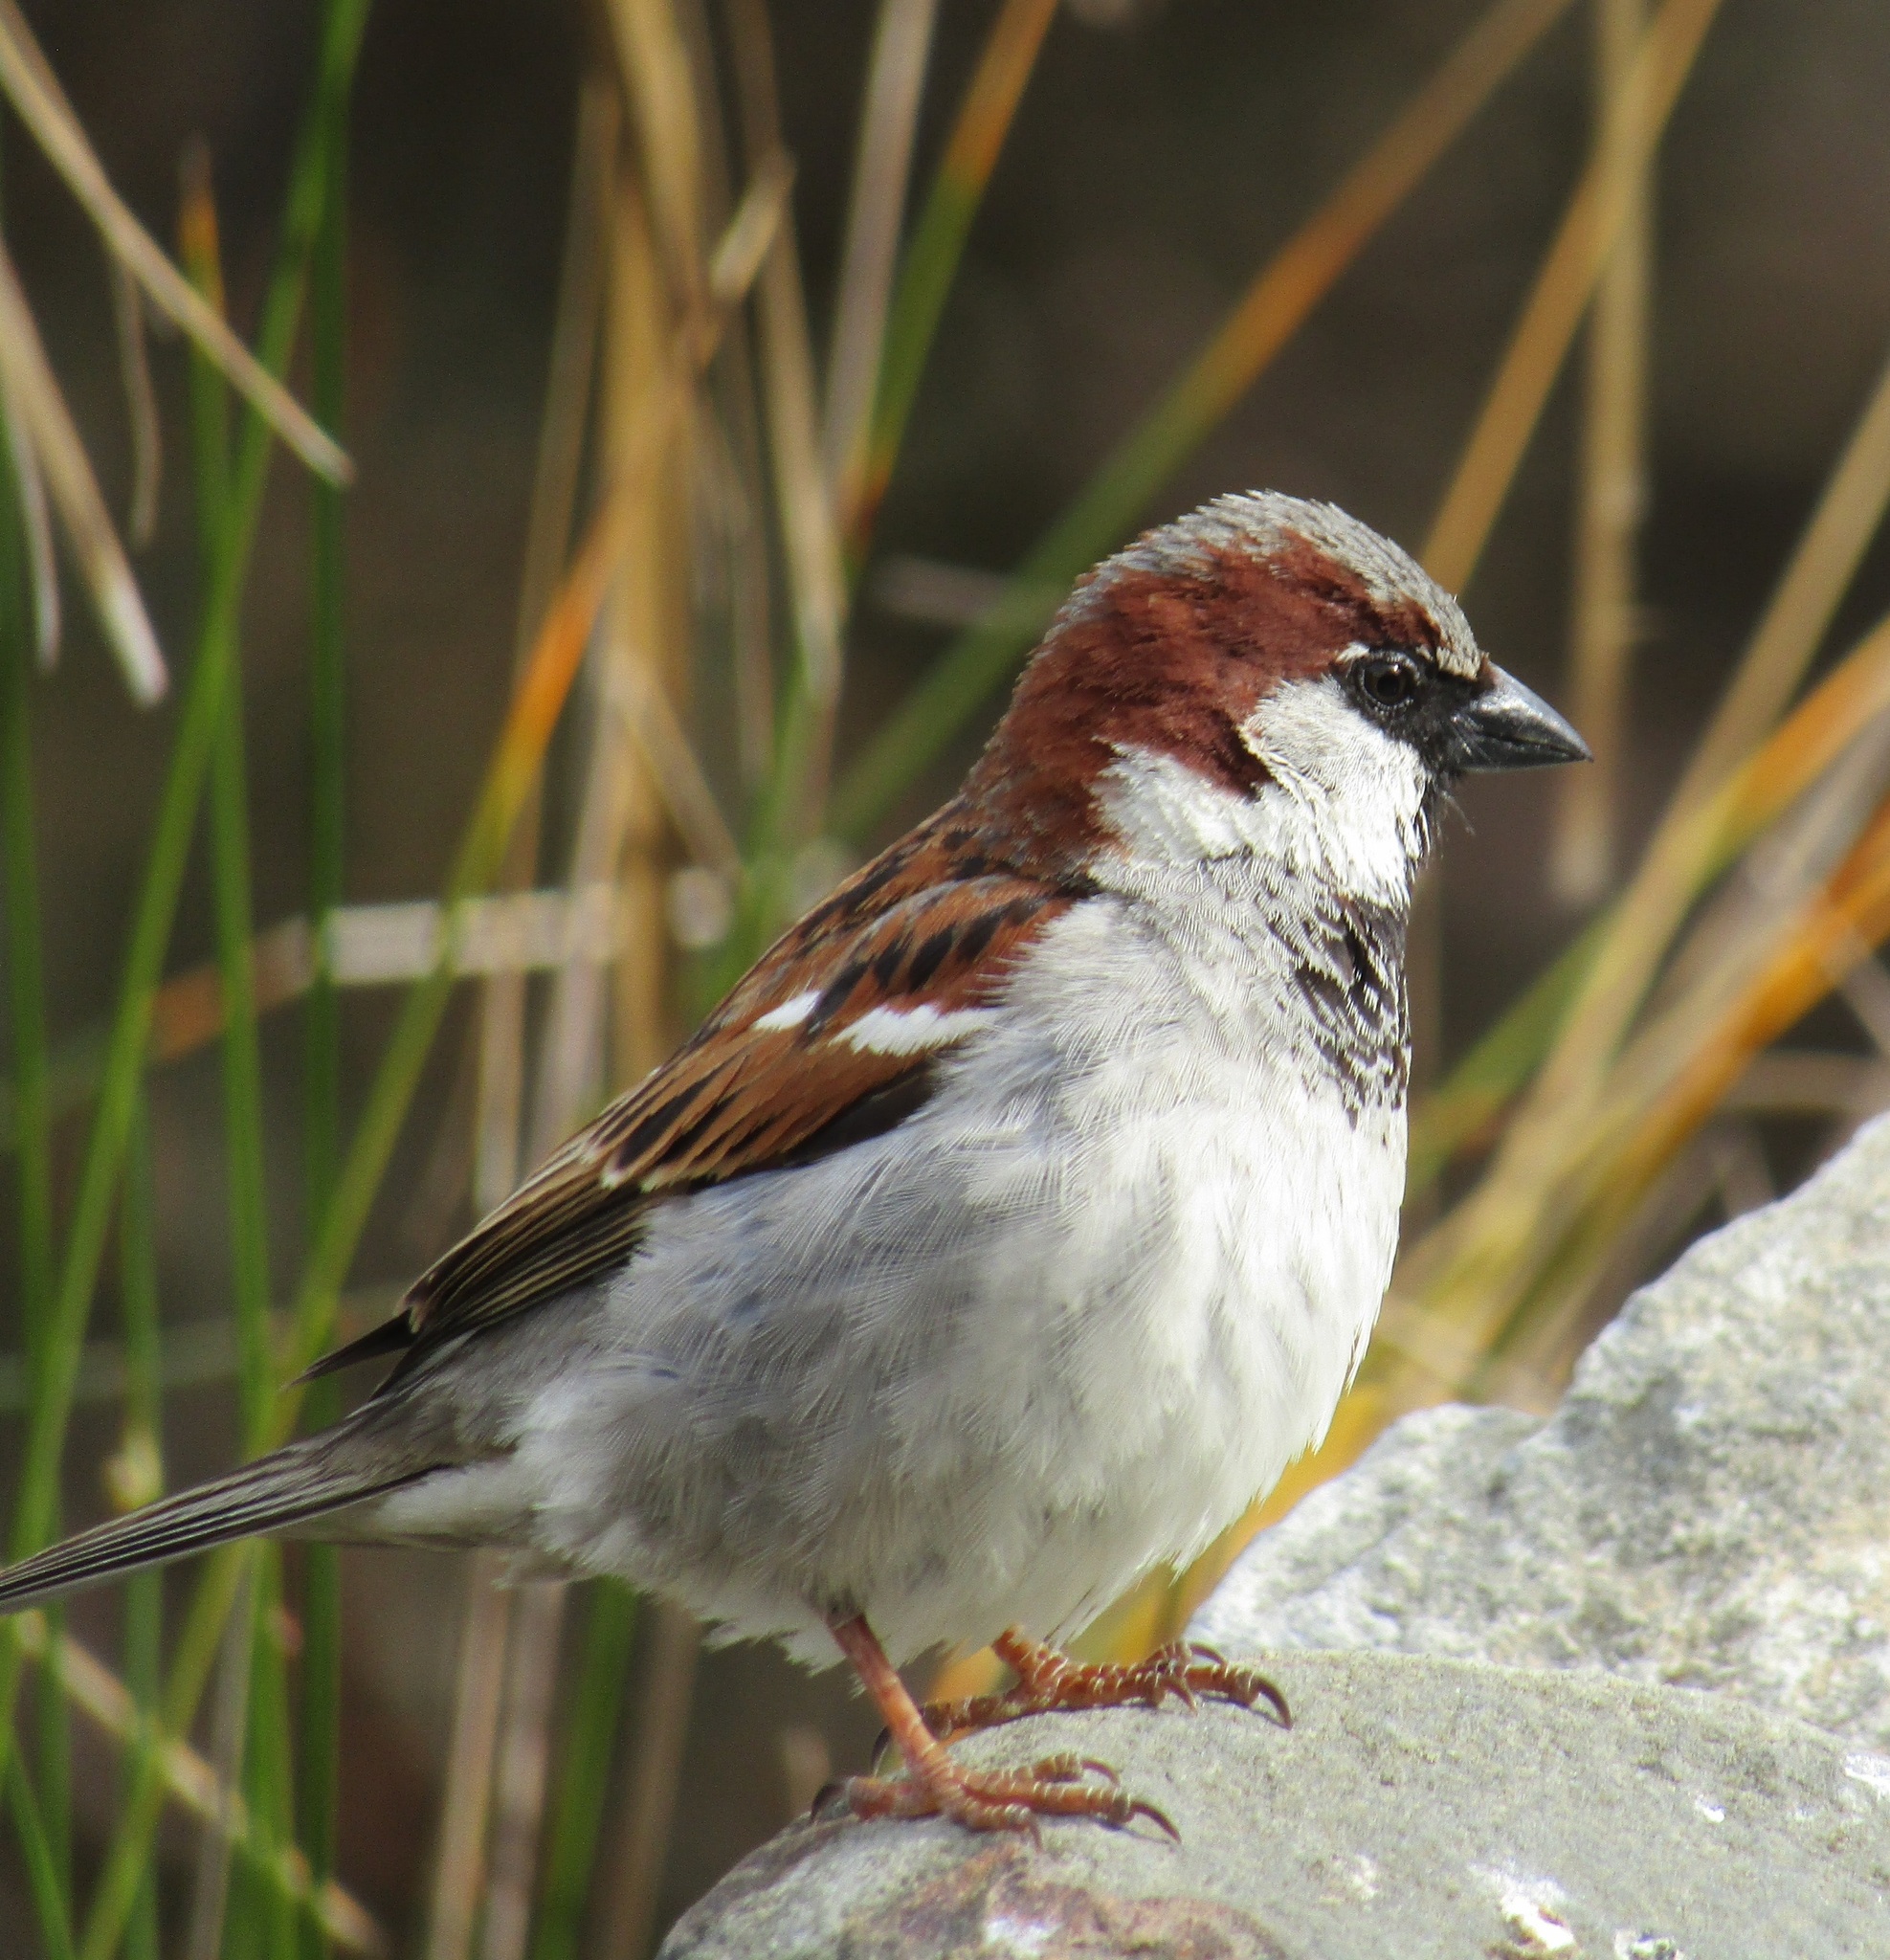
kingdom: Animalia
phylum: Chordata
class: Aves
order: Passeriformes
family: Passeridae
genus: Passer
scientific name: Passer domesticus
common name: House sparrow
